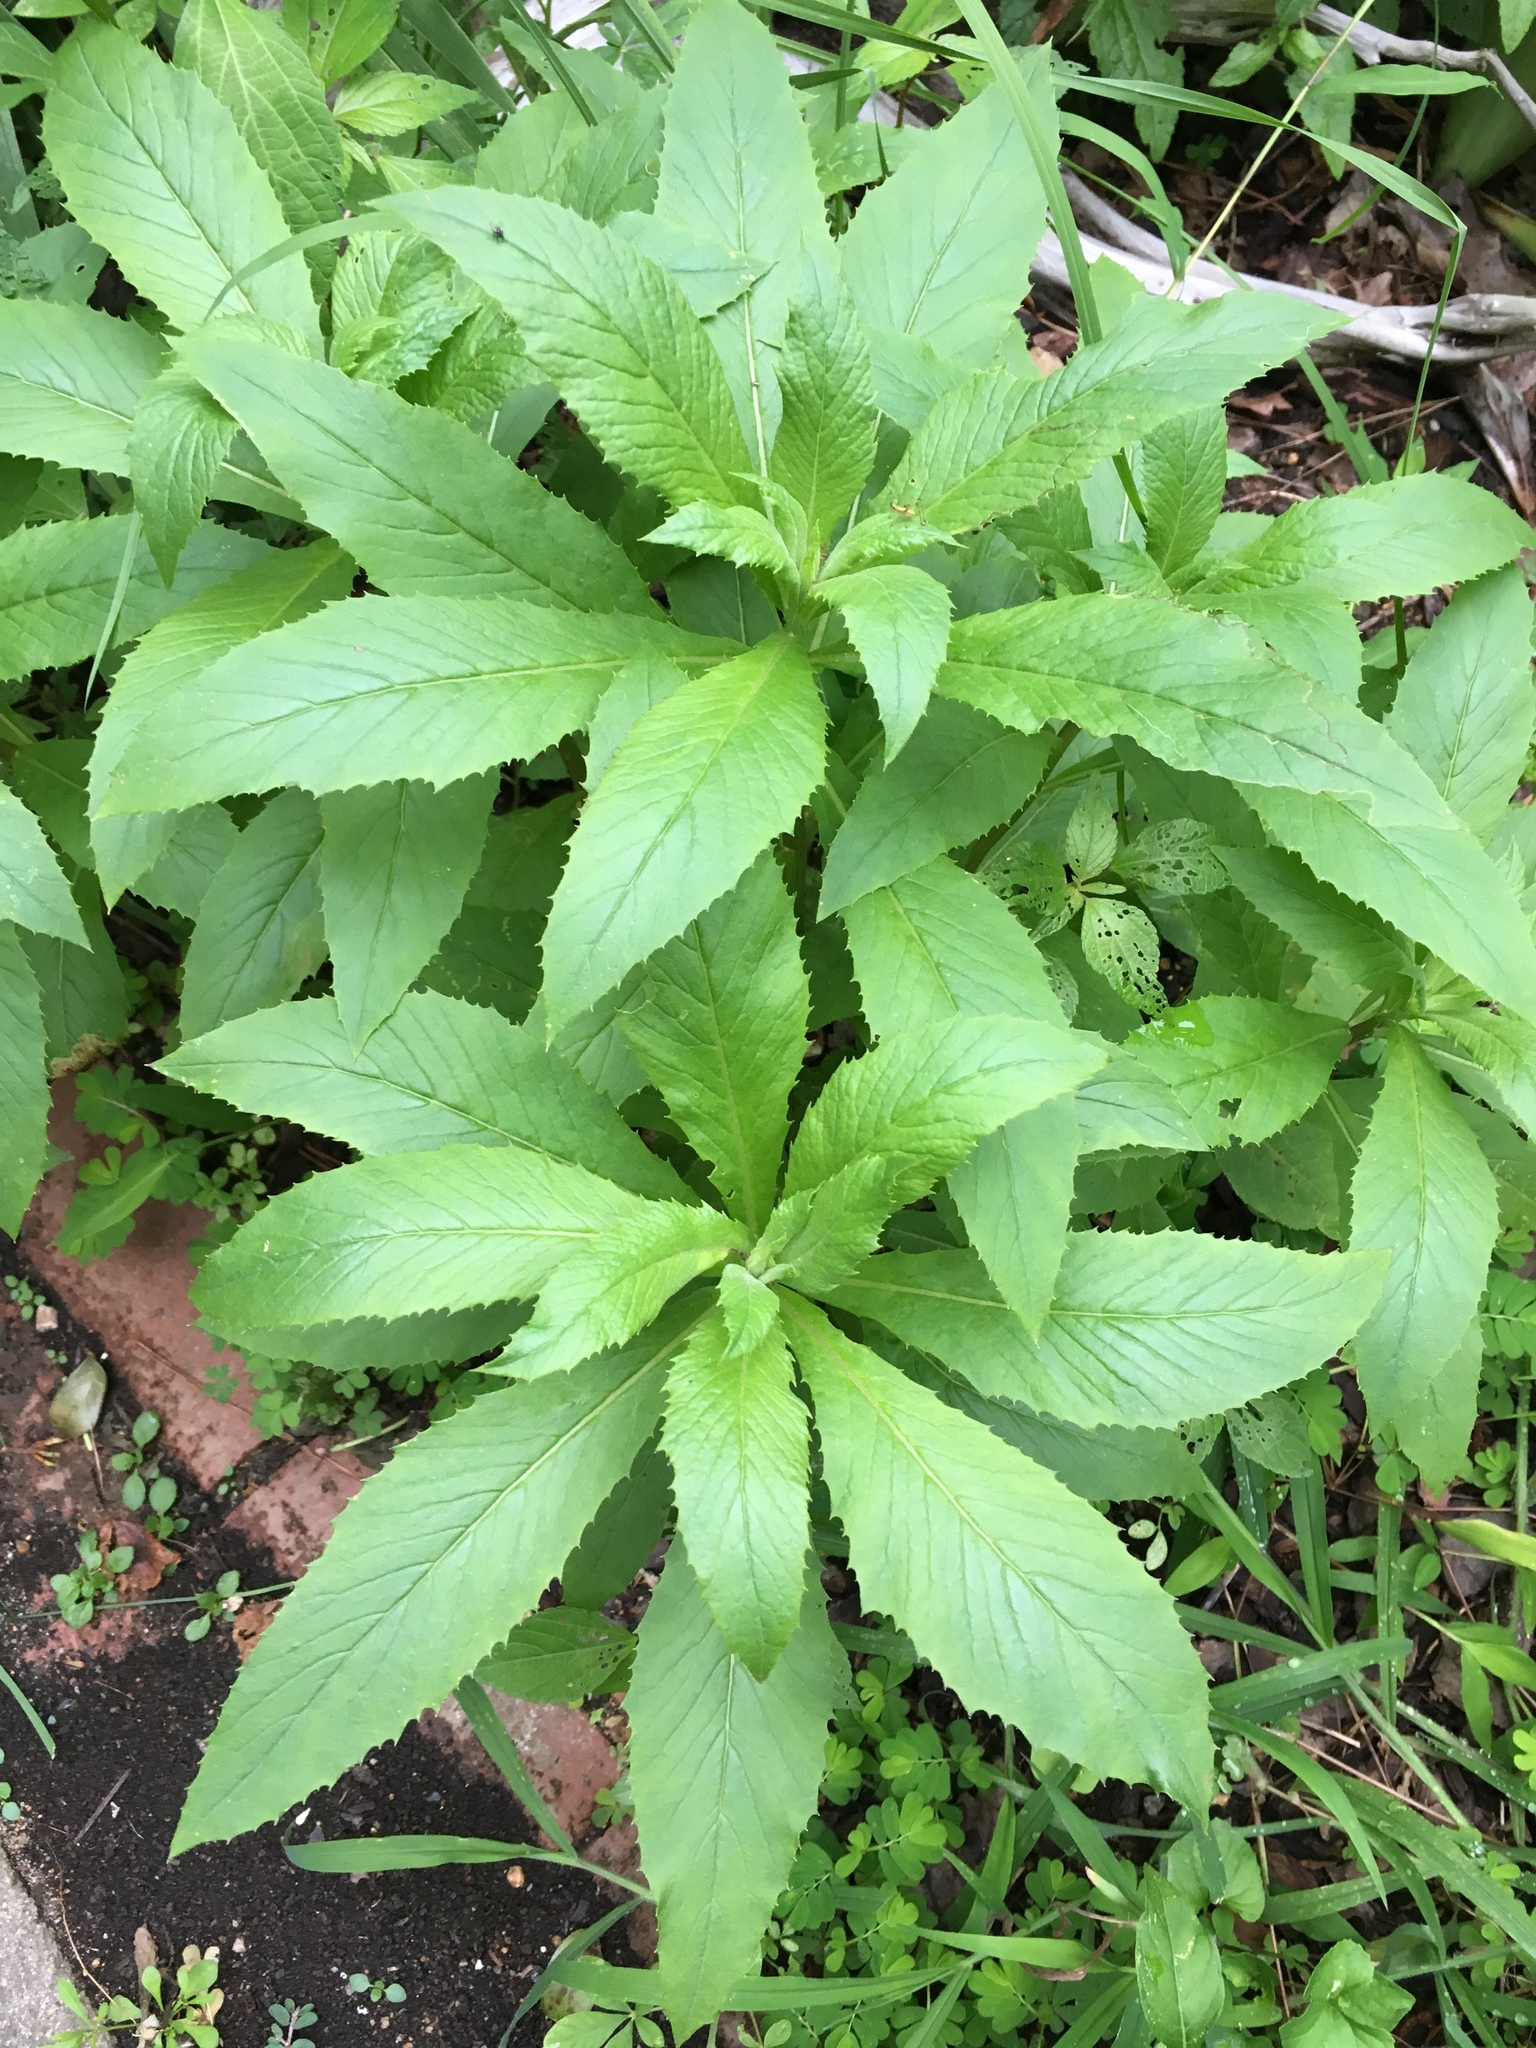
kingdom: Plantae
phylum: Tracheophyta
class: Magnoliopsida
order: Asterales
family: Asteraceae
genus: Erechtites
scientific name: Erechtites hieraciifolius
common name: American burnweed
